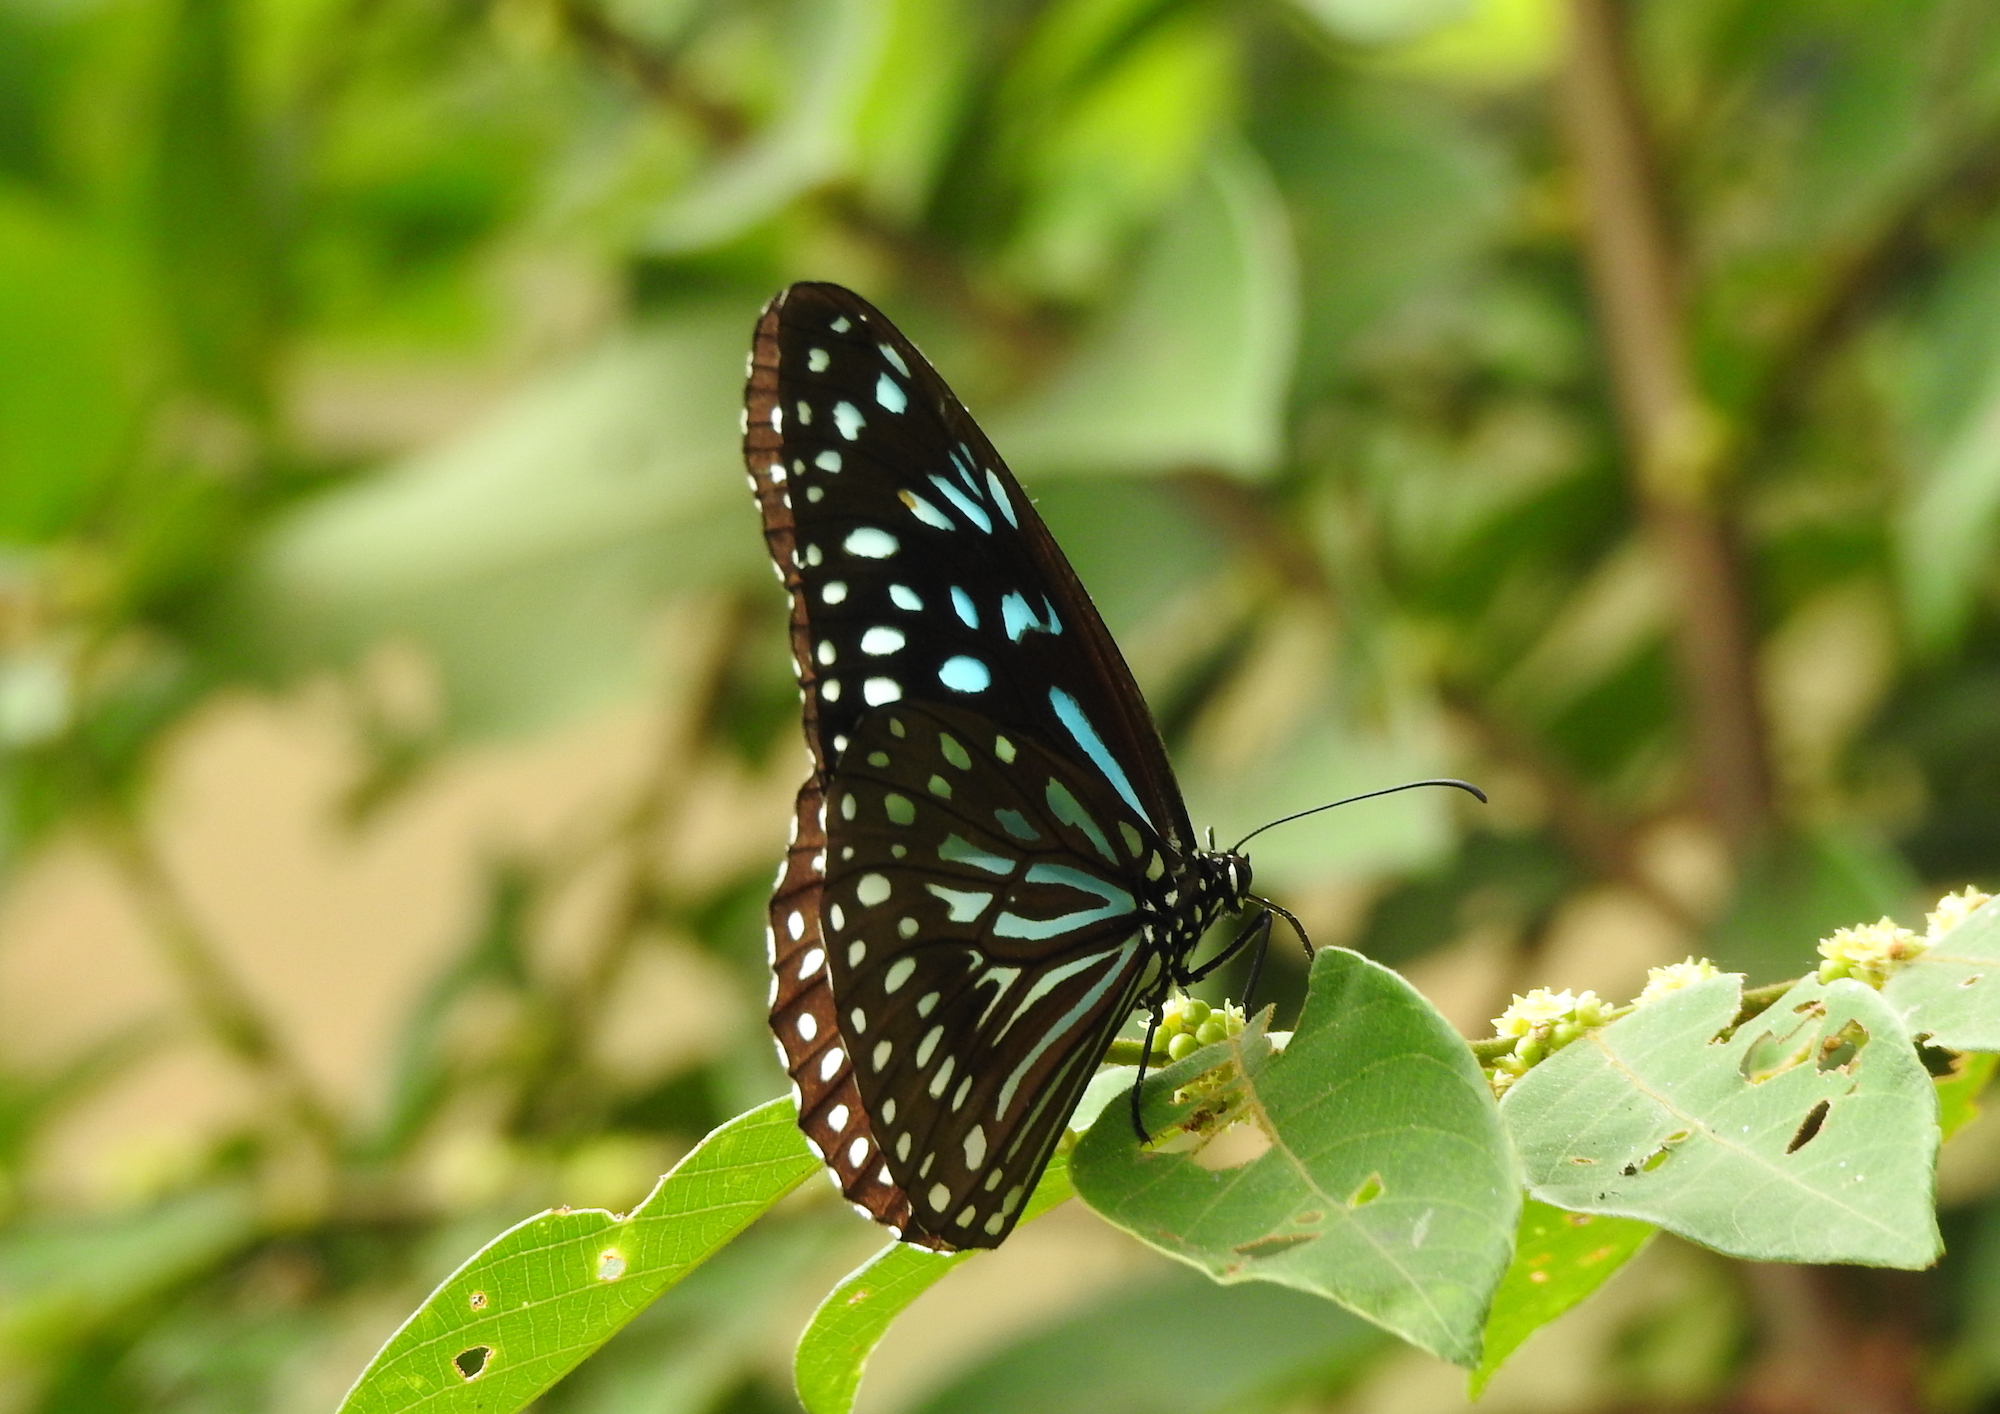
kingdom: Animalia
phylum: Arthropoda
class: Insecta
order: Lepidoptera
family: Nymphalidae
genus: Tirumala
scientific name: Tirumala septentrionis
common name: Dark blue tiger butterfly
